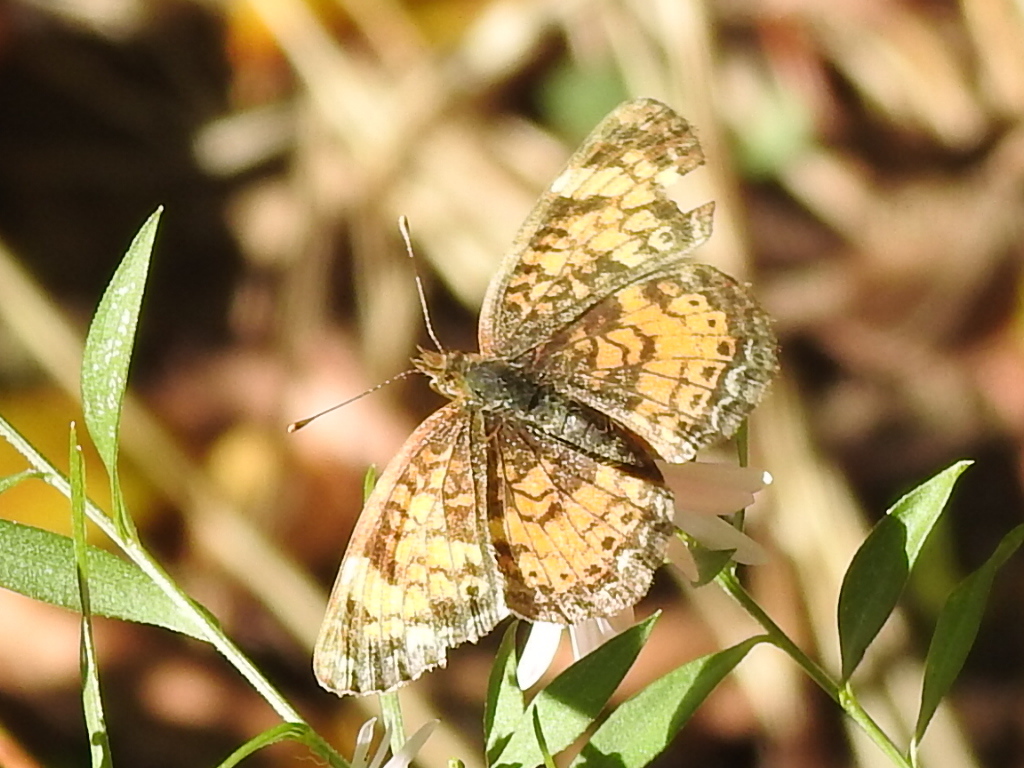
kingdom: Animalia
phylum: Arthropoda
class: Insecta
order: Lepidoptera
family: Nymphalidae
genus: Phyciodes
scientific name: Phyciodes tharos
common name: Pearl crescent
